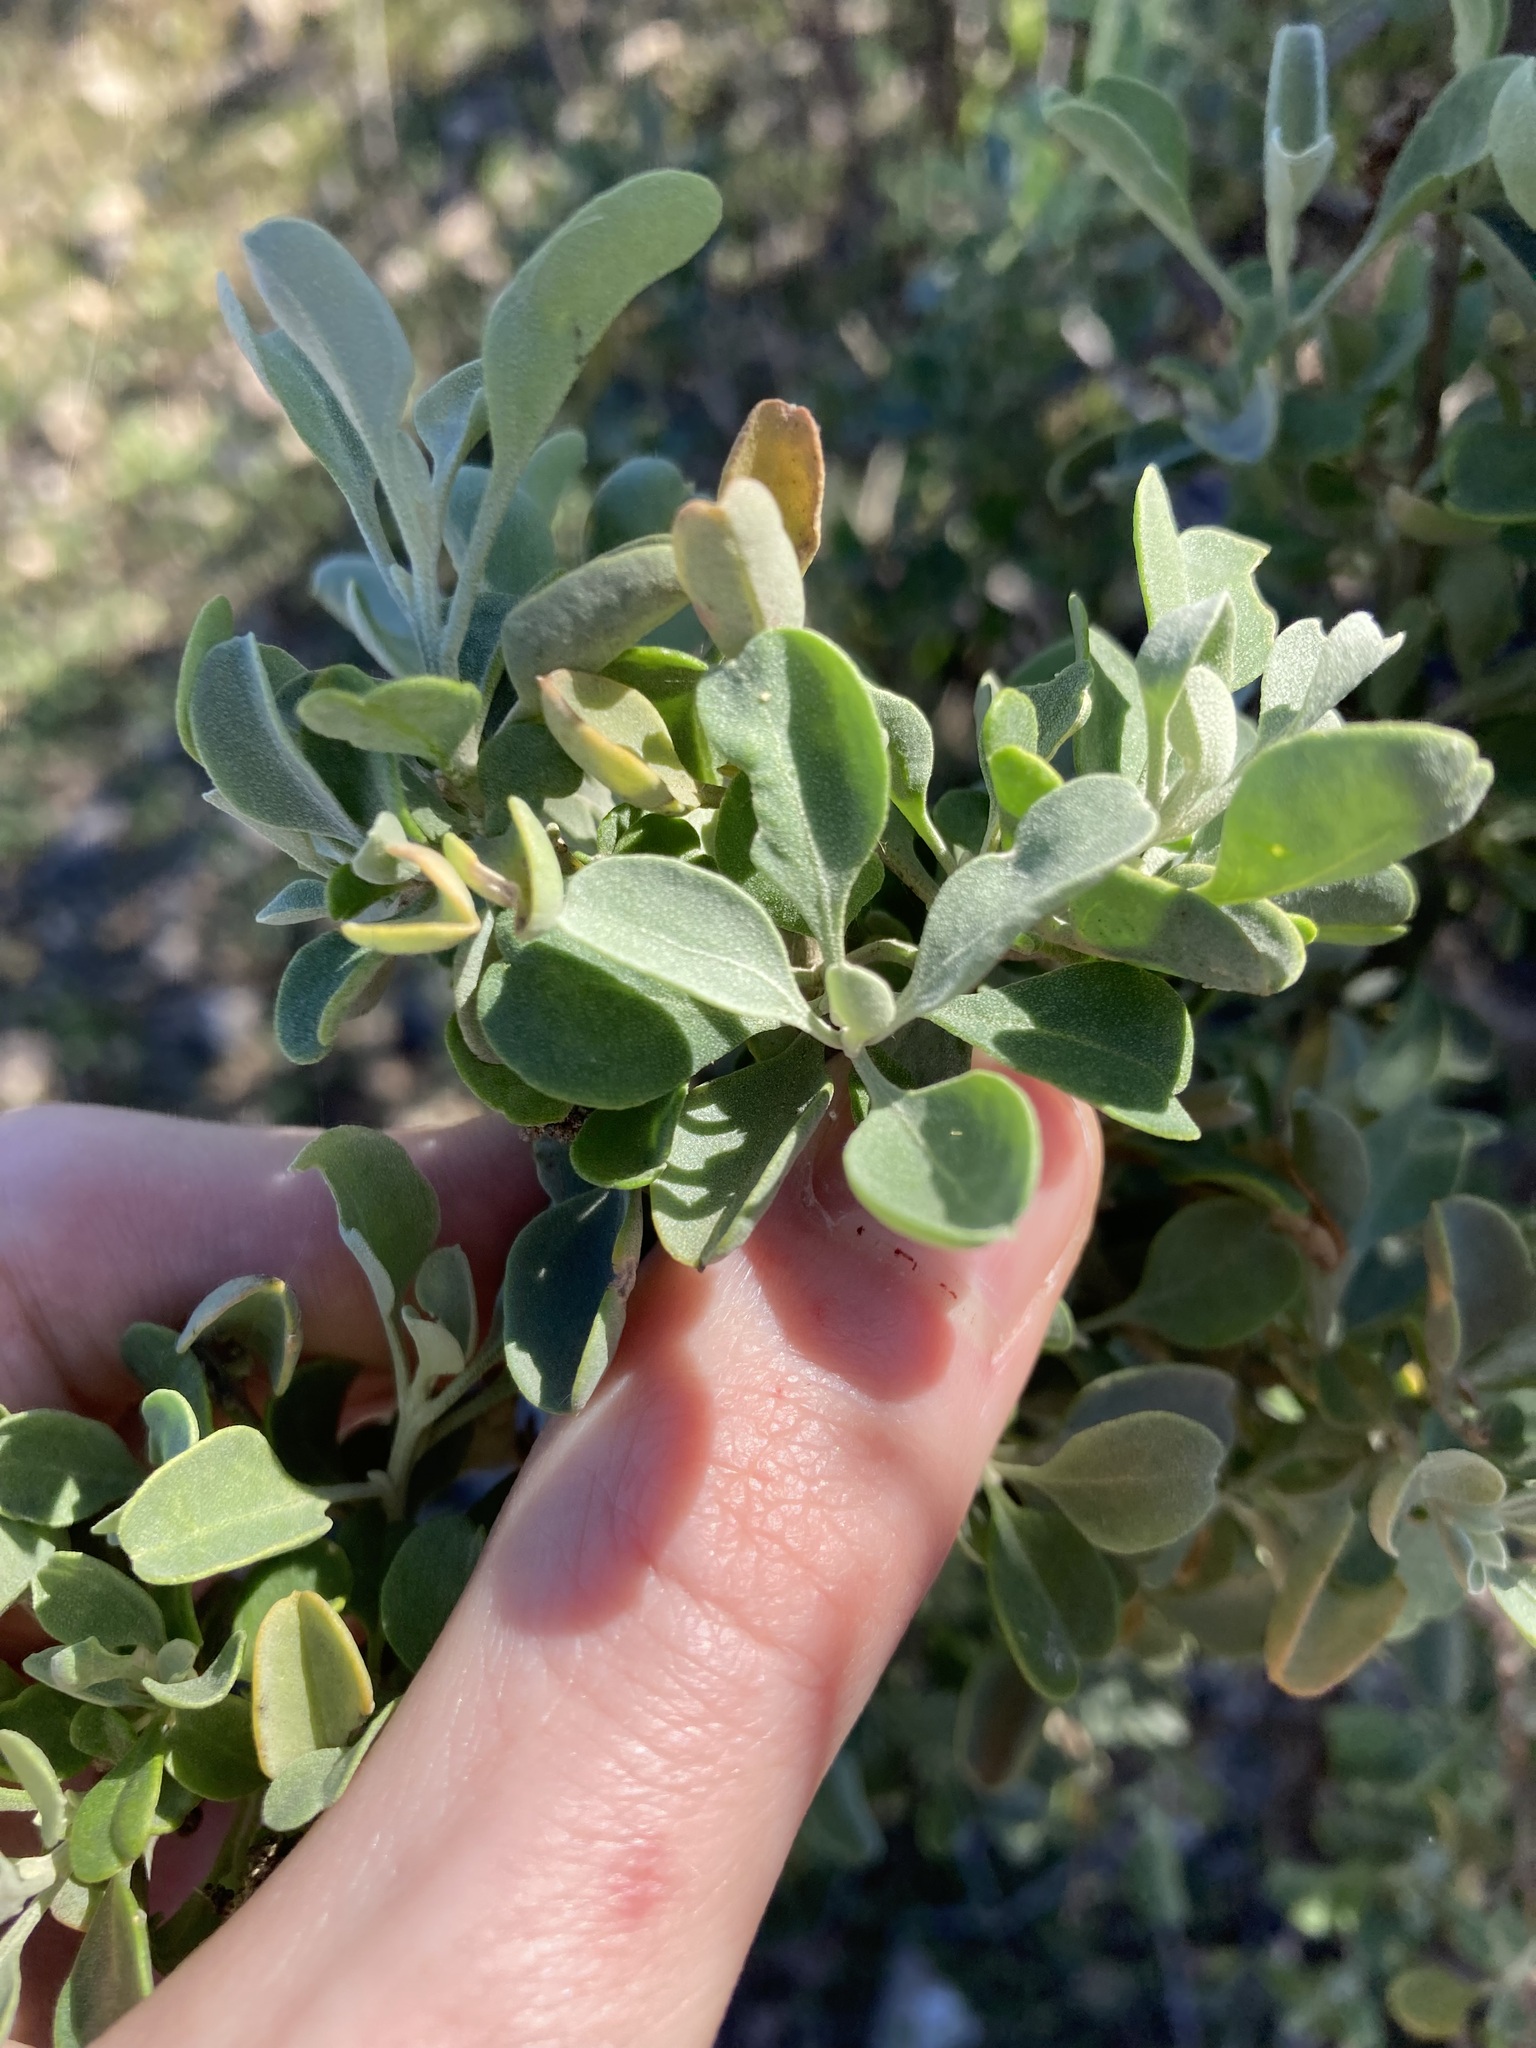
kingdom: Plantae
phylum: Tracheophyta
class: Magnoliopsida
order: Caryophyllales
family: Amaranthaceae
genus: Chenopodium
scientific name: Chenopodium preissii
